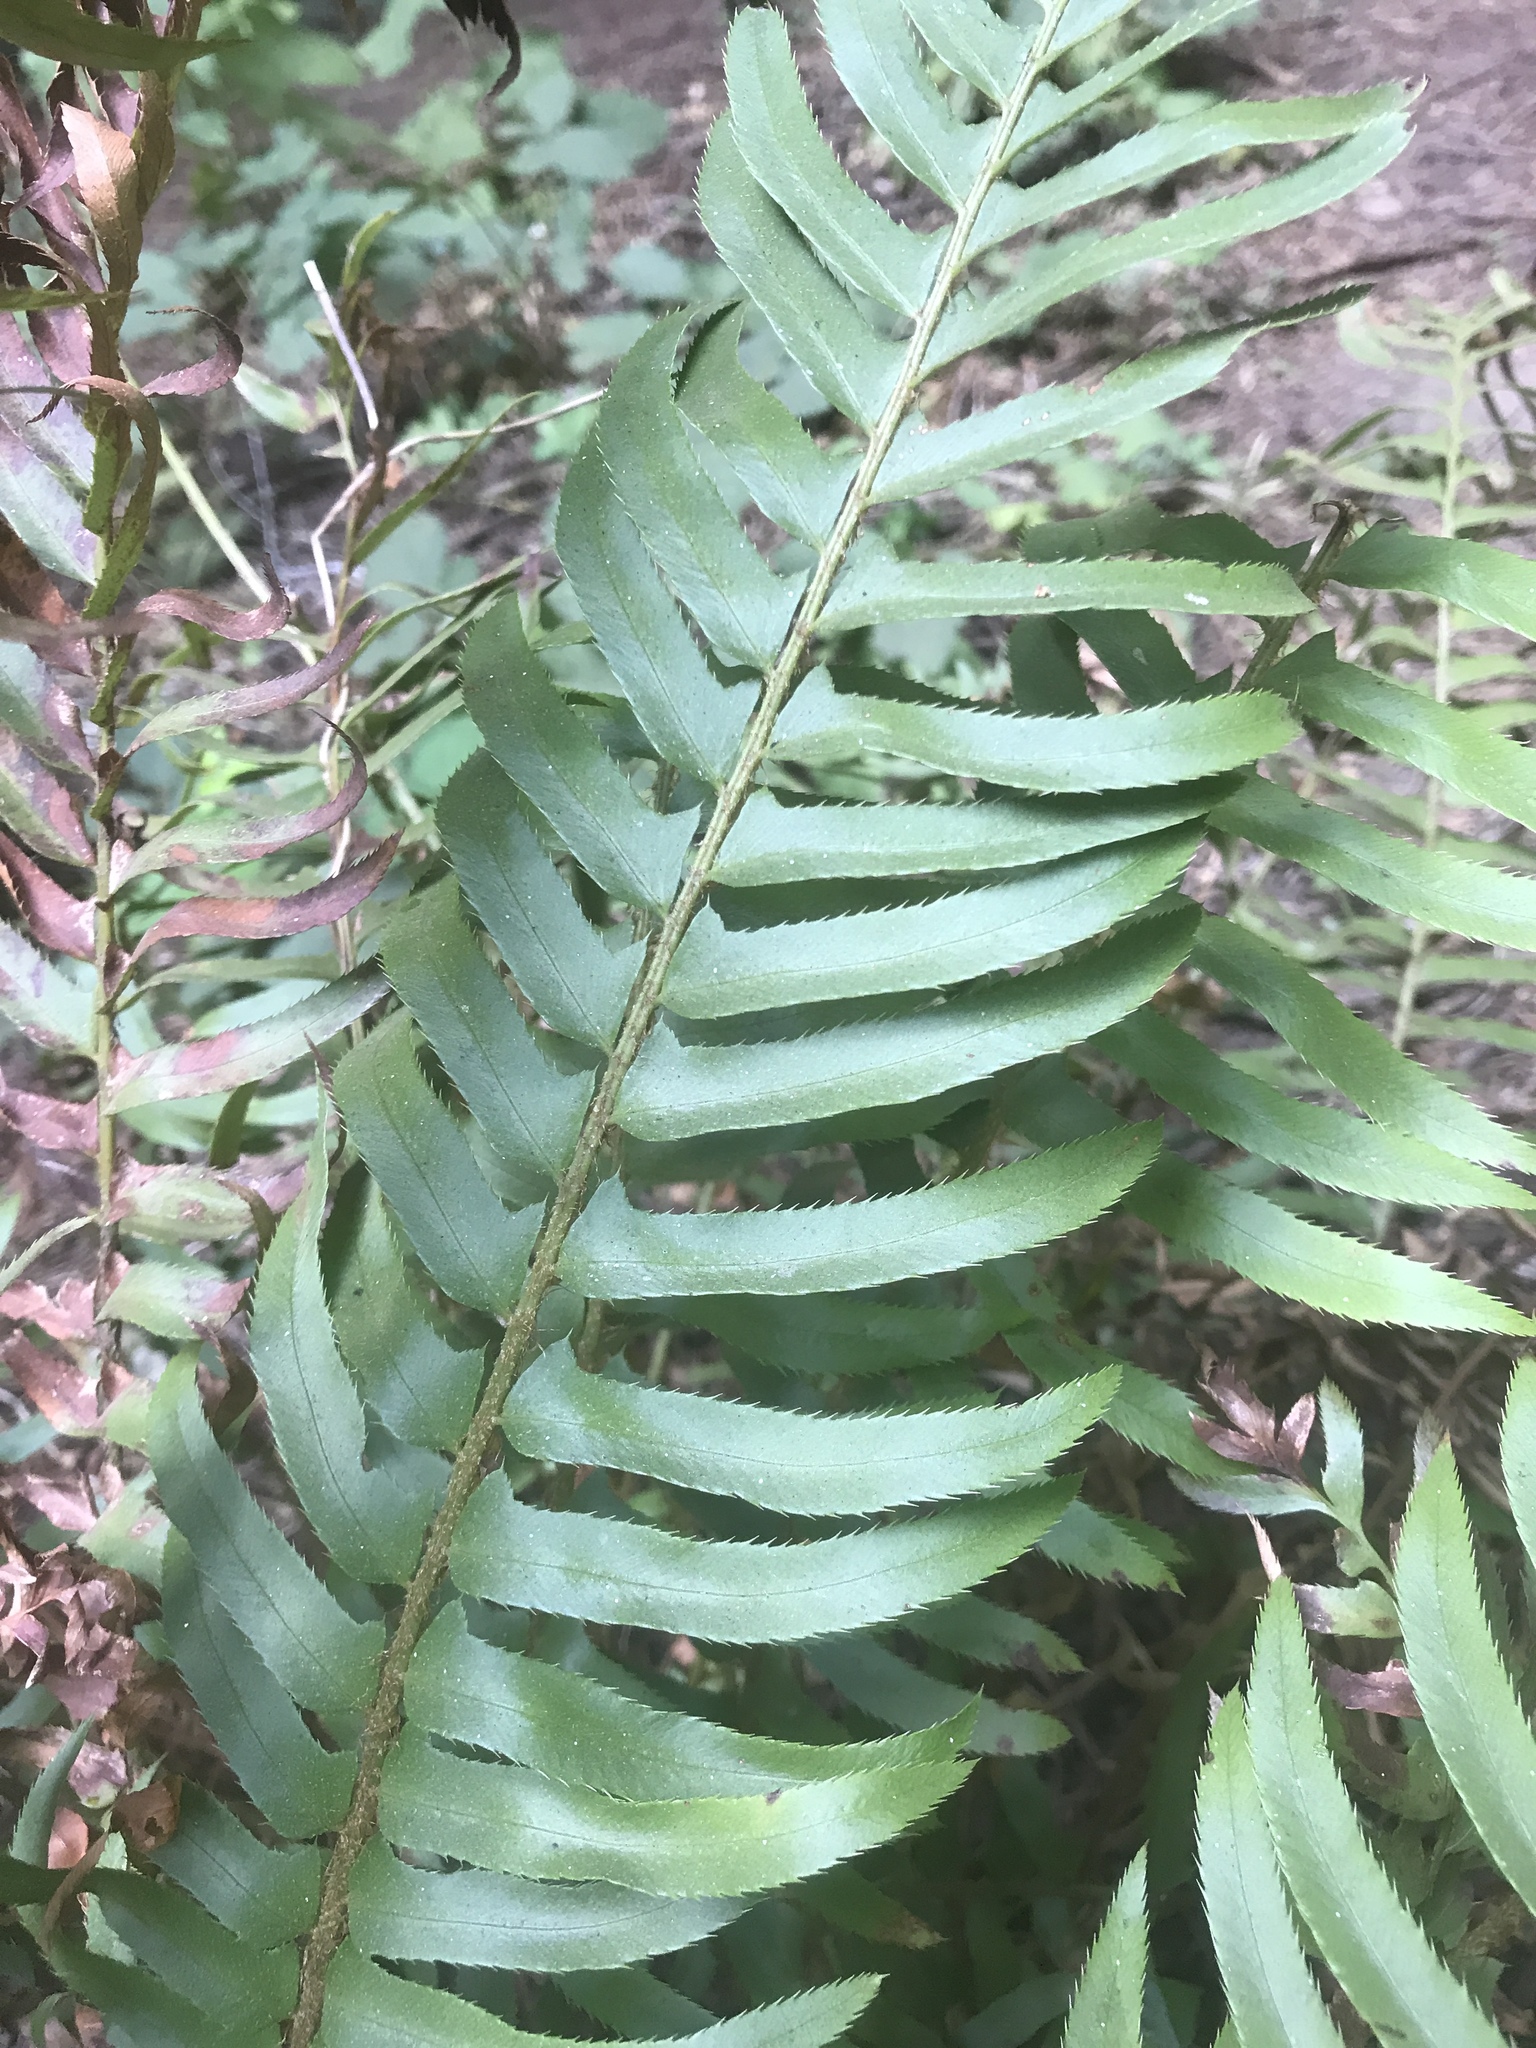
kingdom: Plantae
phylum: Tracheophyta
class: Polypodiopsida
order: Polypodiales
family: Dryopteridaceae
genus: Polystichum
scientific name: Polystichum munitum
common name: Western sword-fern
